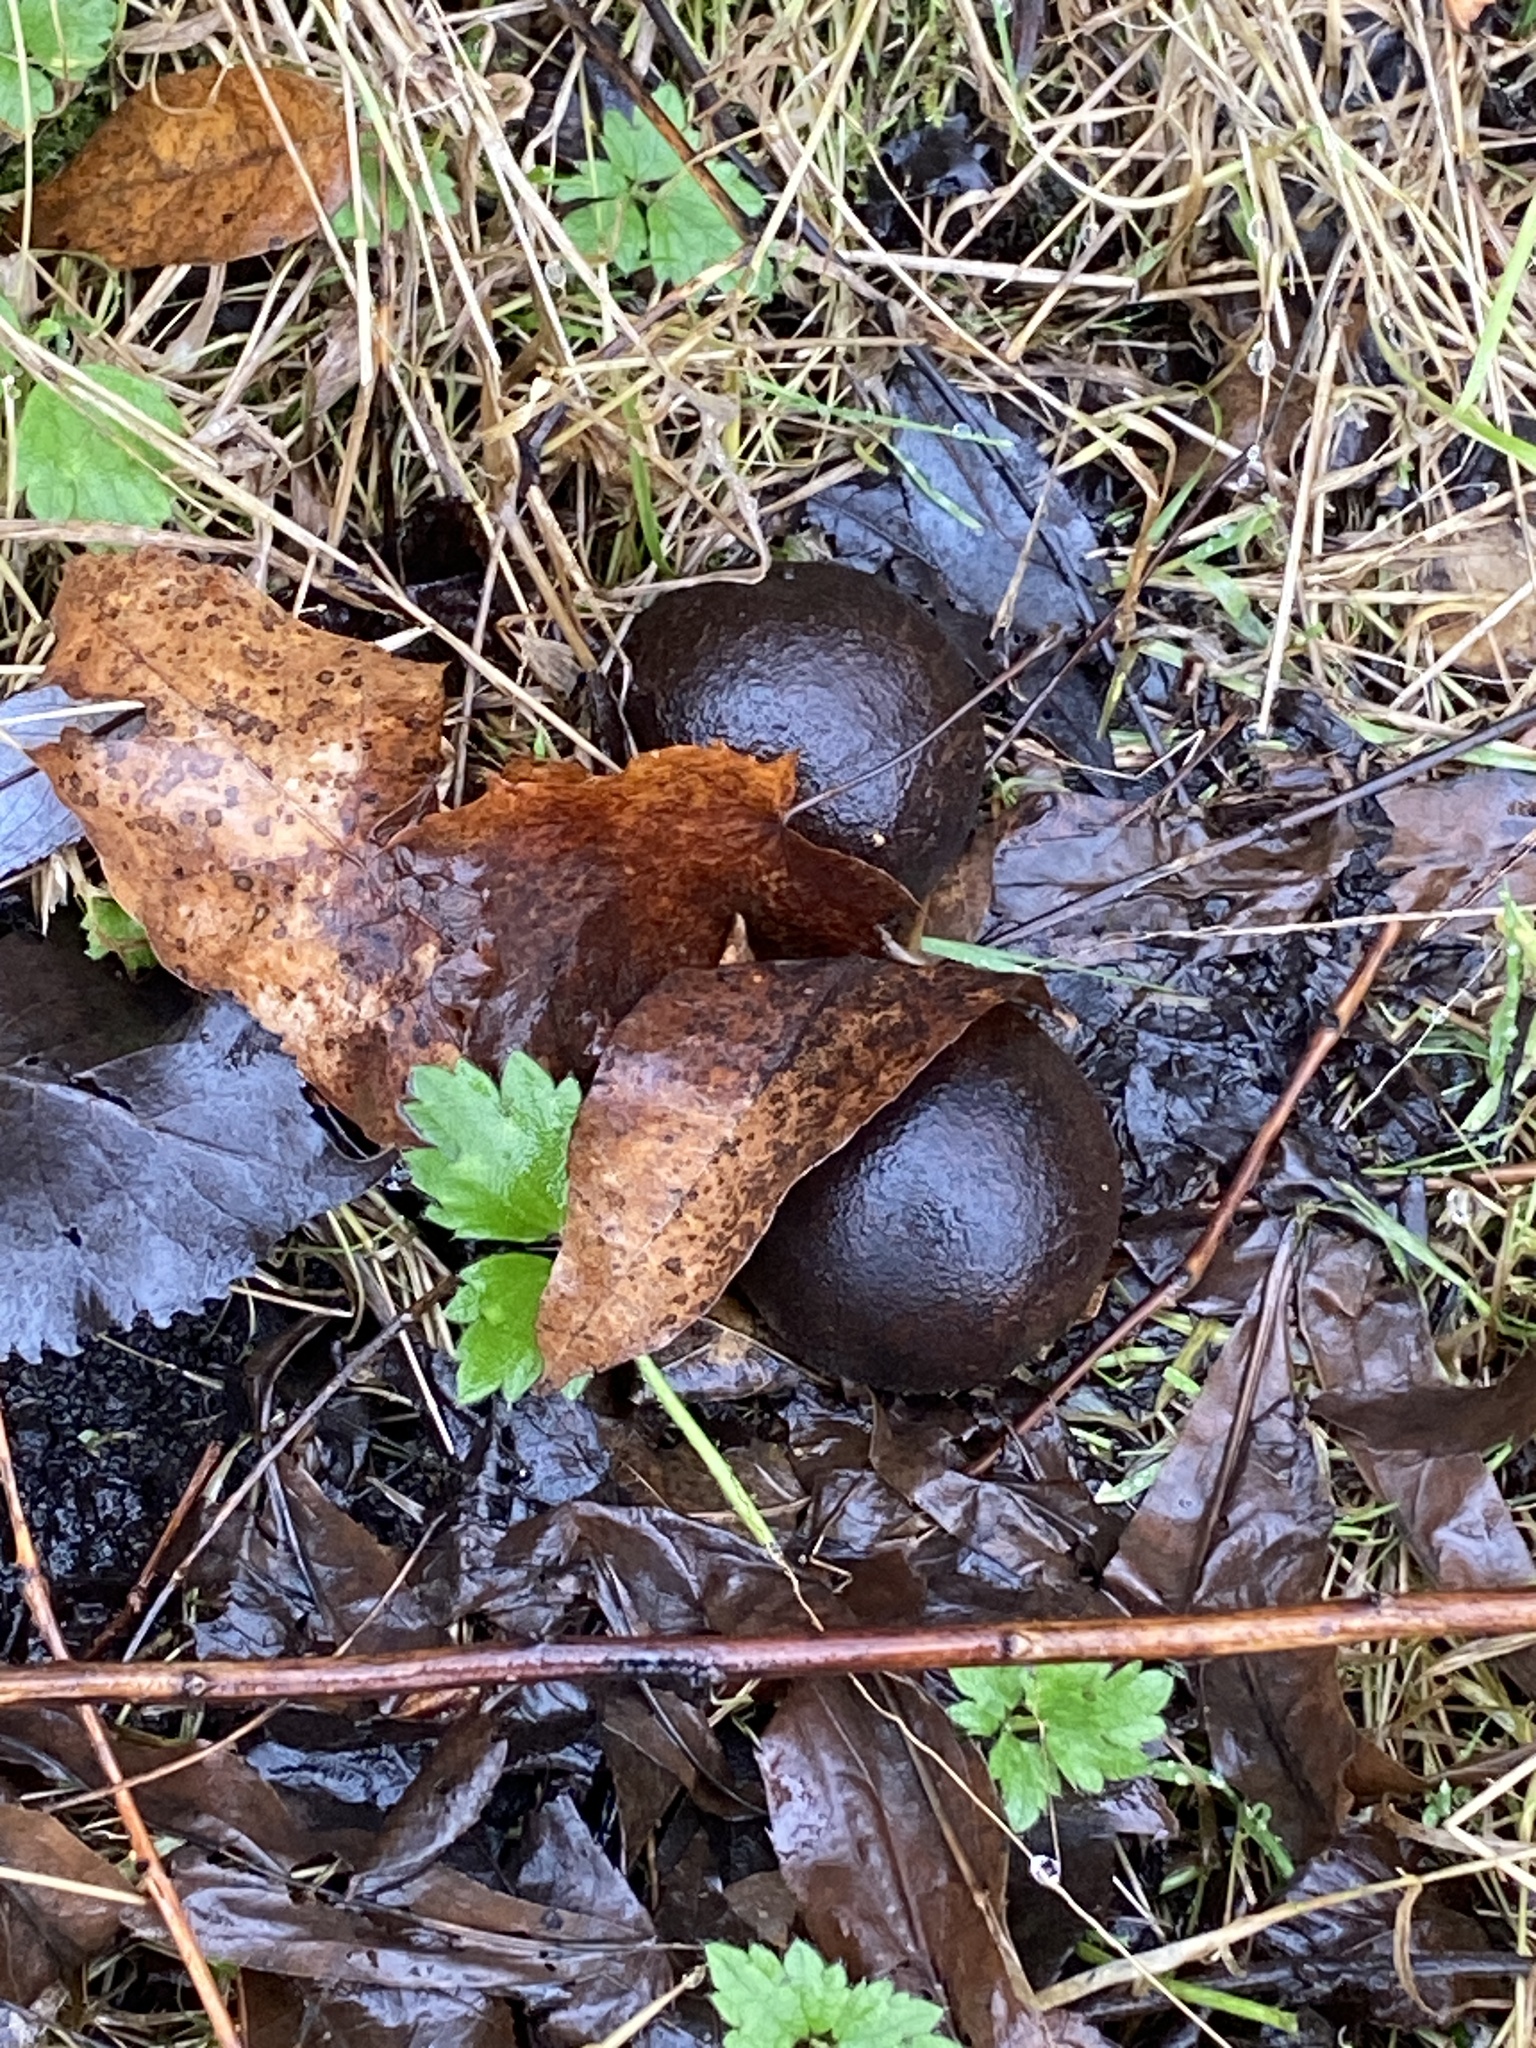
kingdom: Plantae
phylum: Tracheophyta
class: Magnoliopsida
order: Fagales
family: Juglandaceae
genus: Juglans
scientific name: Juglans nigra
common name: Black walnut
